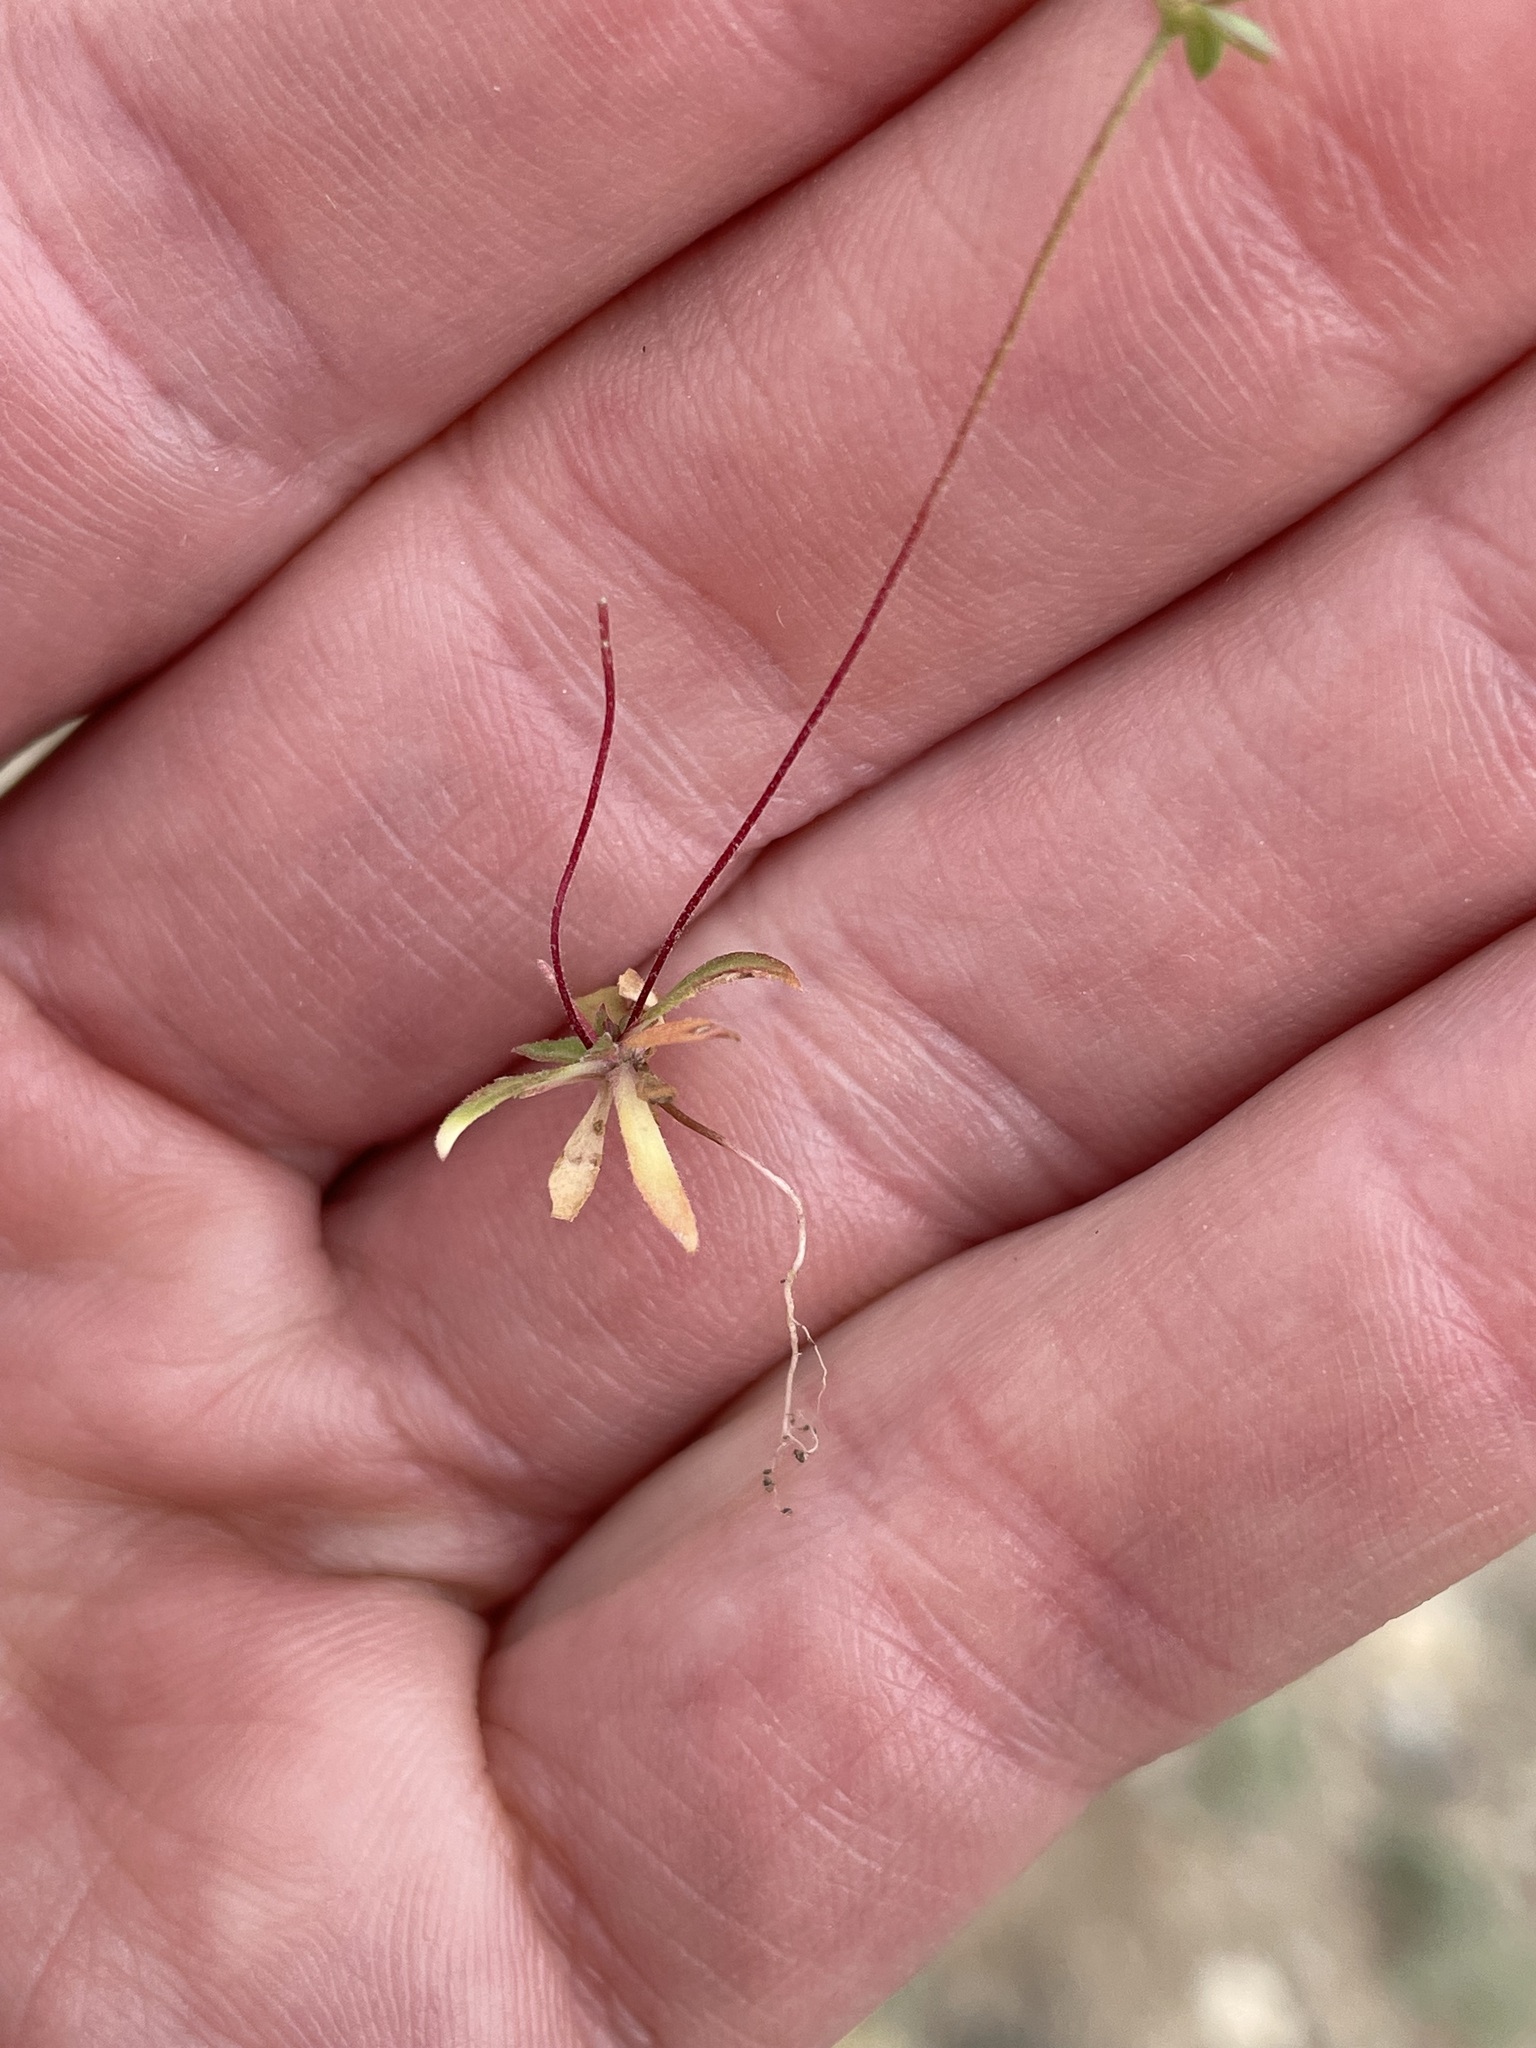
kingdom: Plantae
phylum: Tracheophyta
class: Magnoliopsida
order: Ericales
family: Primulaceae
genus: Androsace
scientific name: Androsace occidentalis
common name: West rock-jasmine
